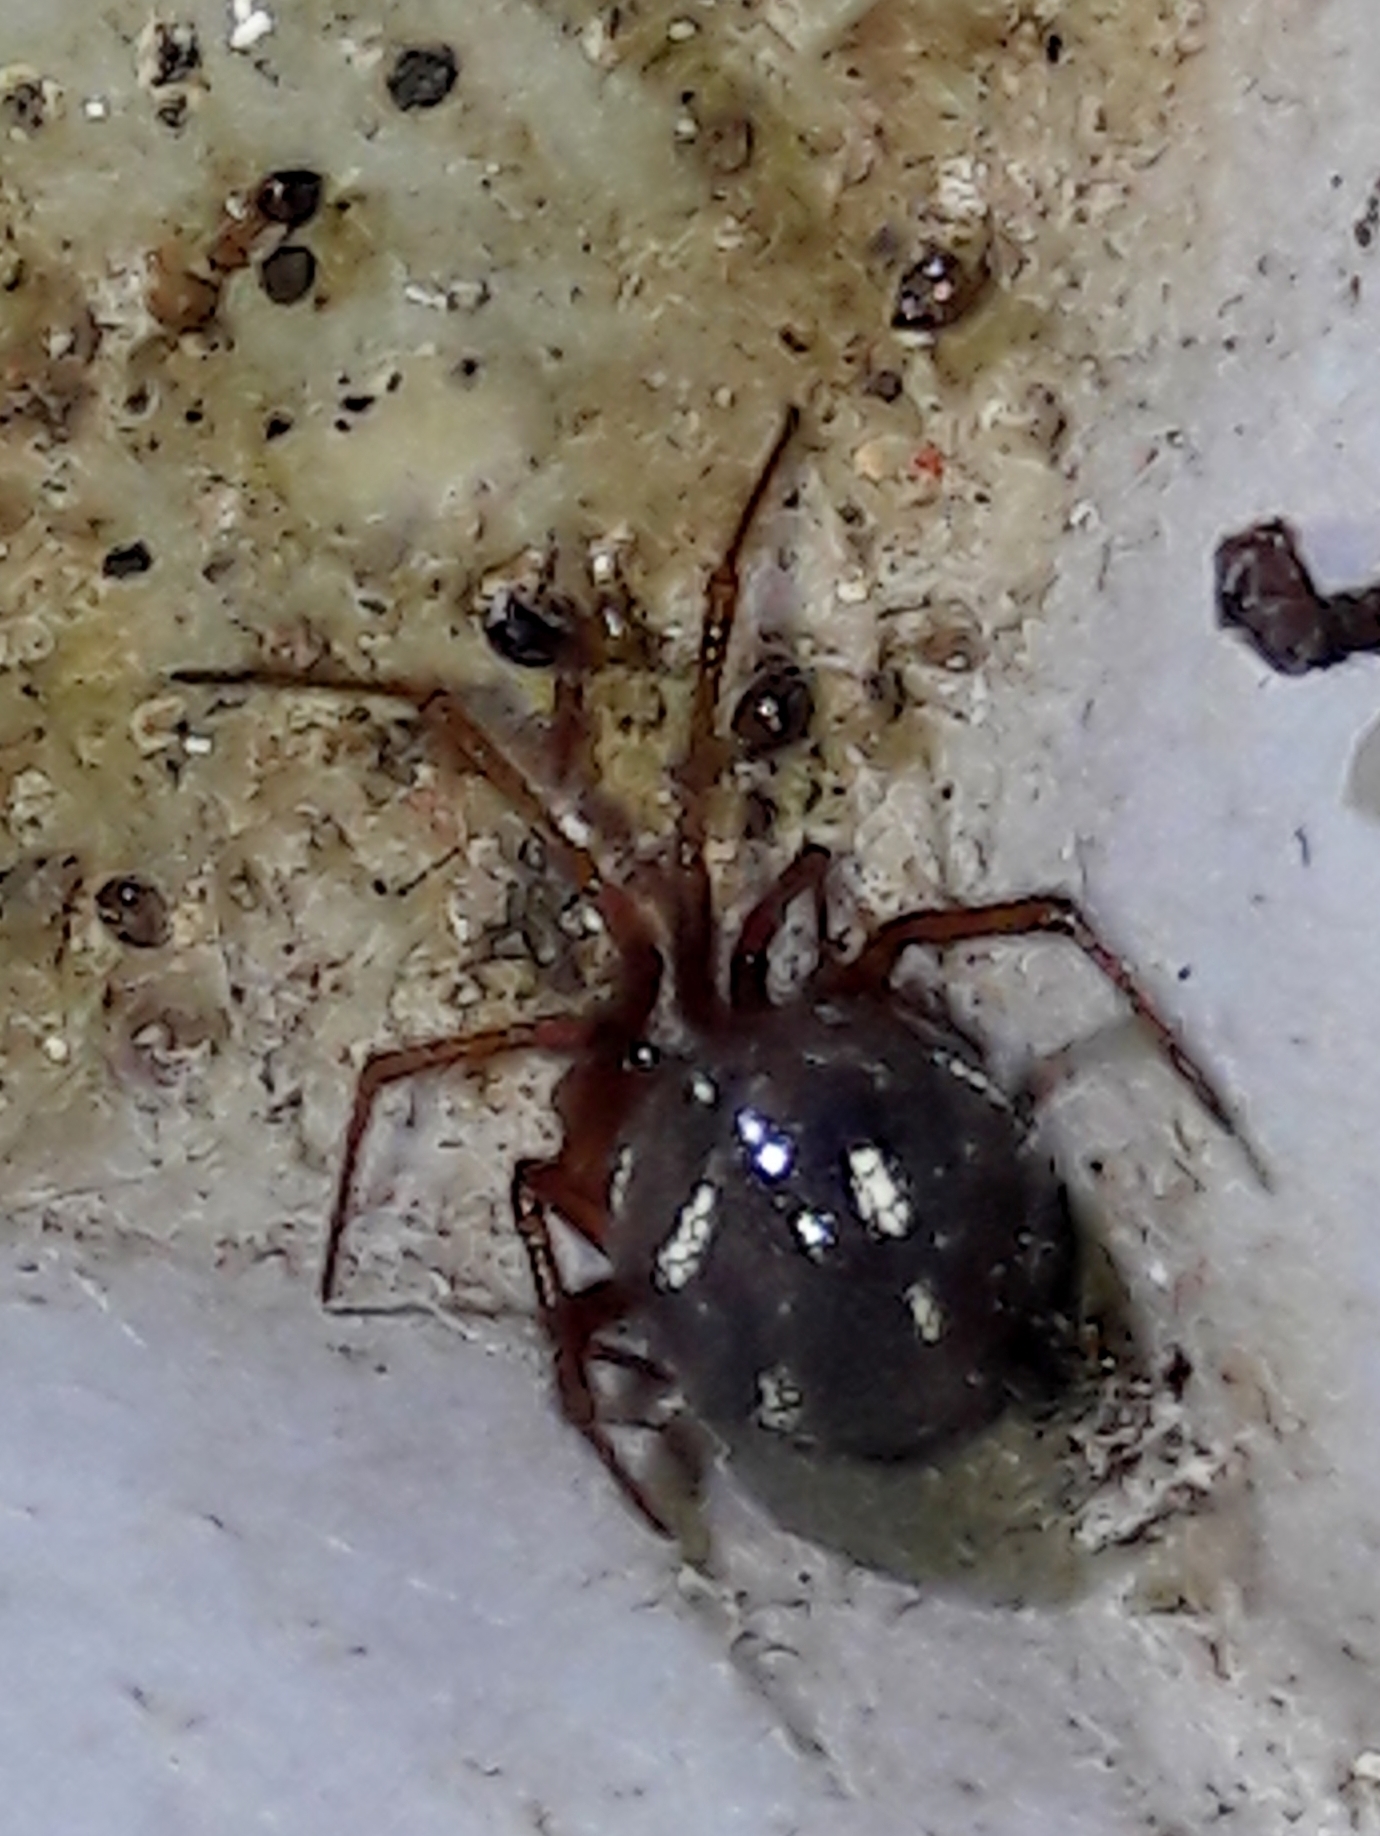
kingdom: Animalia
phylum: Arthropoda
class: Arachnida
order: Araneae
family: Theridiidae
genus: Nesticodes
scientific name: Nesticodes rufipes
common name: Cobweb spiders
